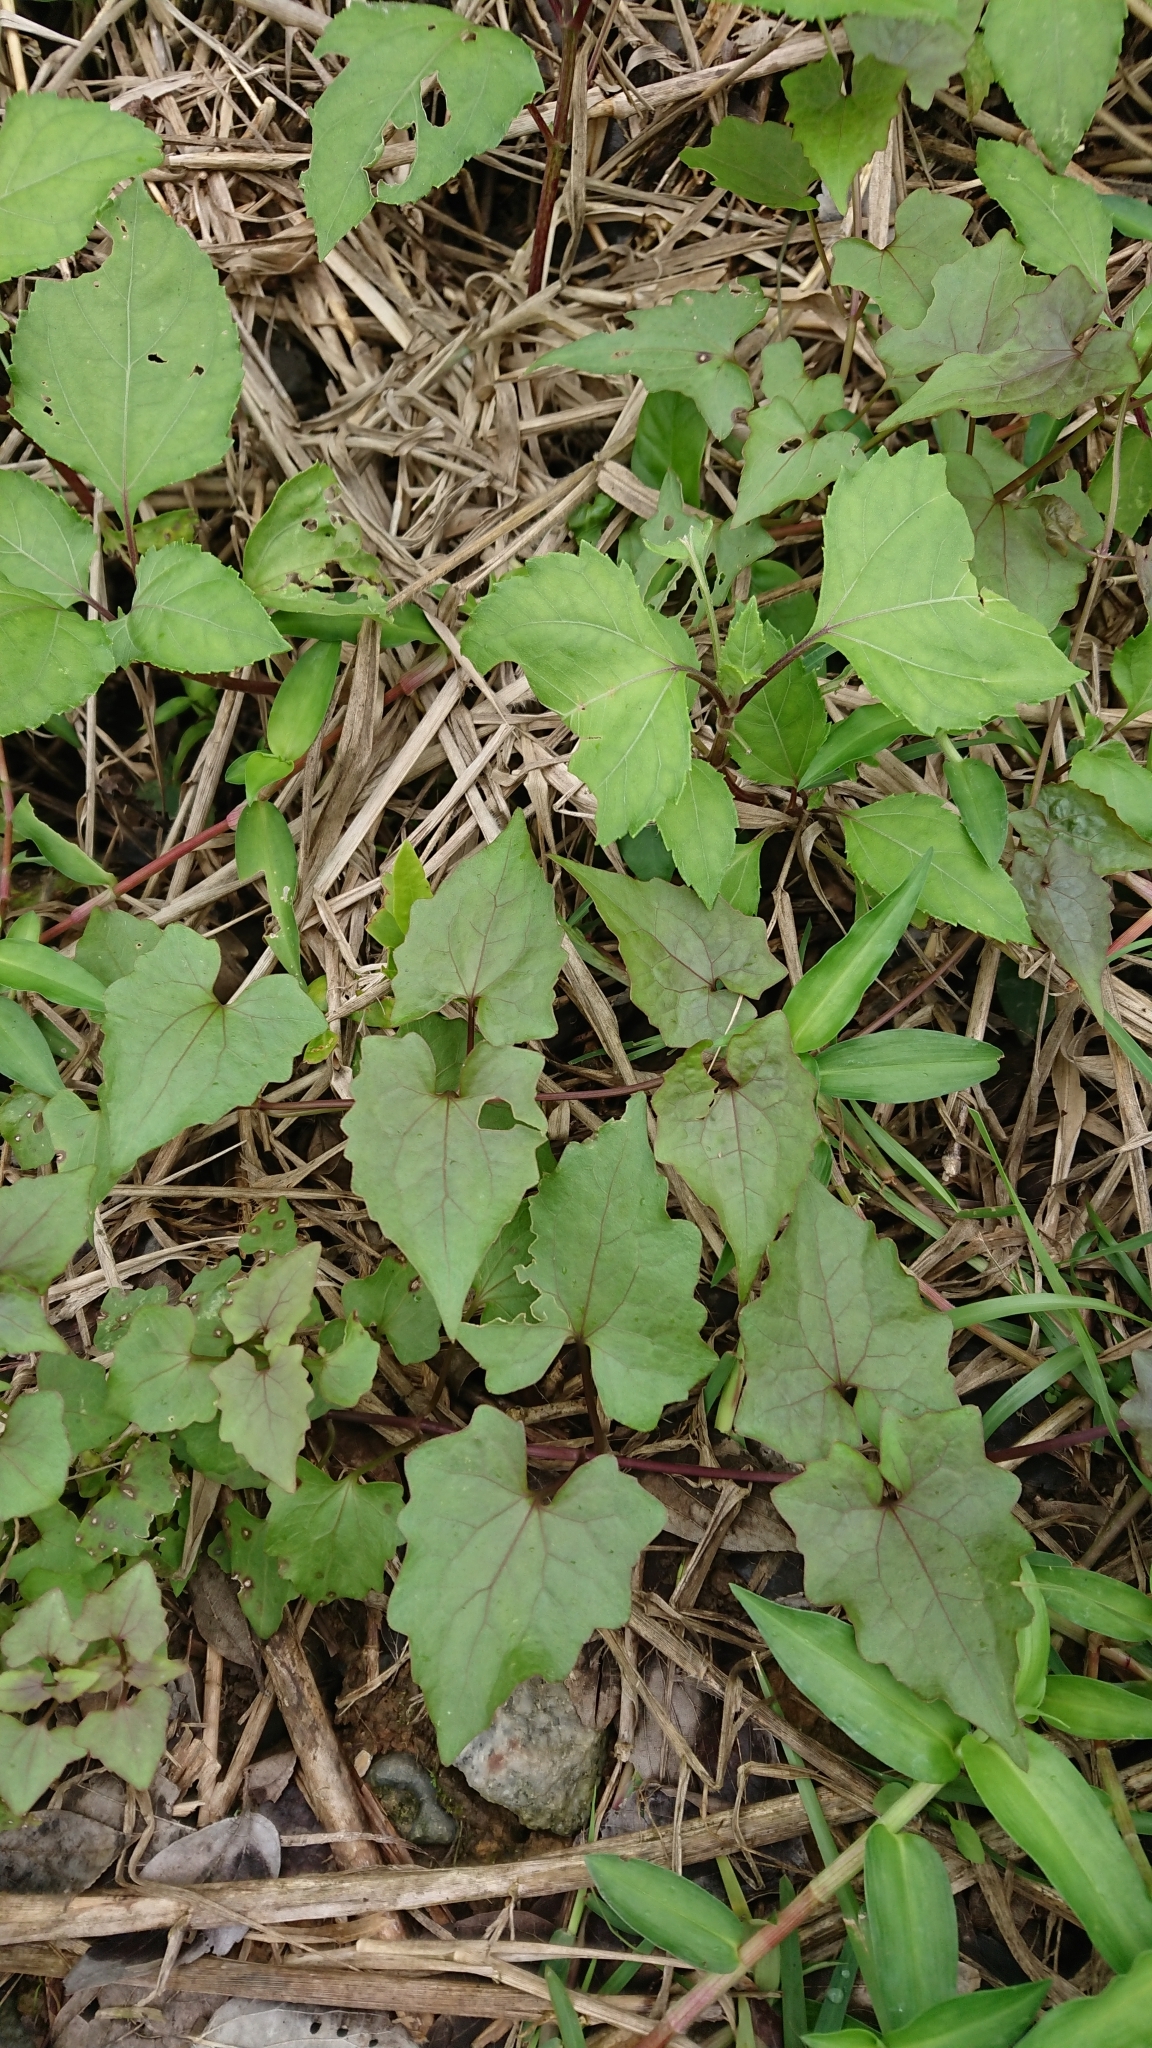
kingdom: Plantae
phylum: Tracheophyta
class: Magnoliopsida
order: Asterales
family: Asteraceae
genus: Mikania
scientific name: Mikania micrantha
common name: Mile-a-minute
